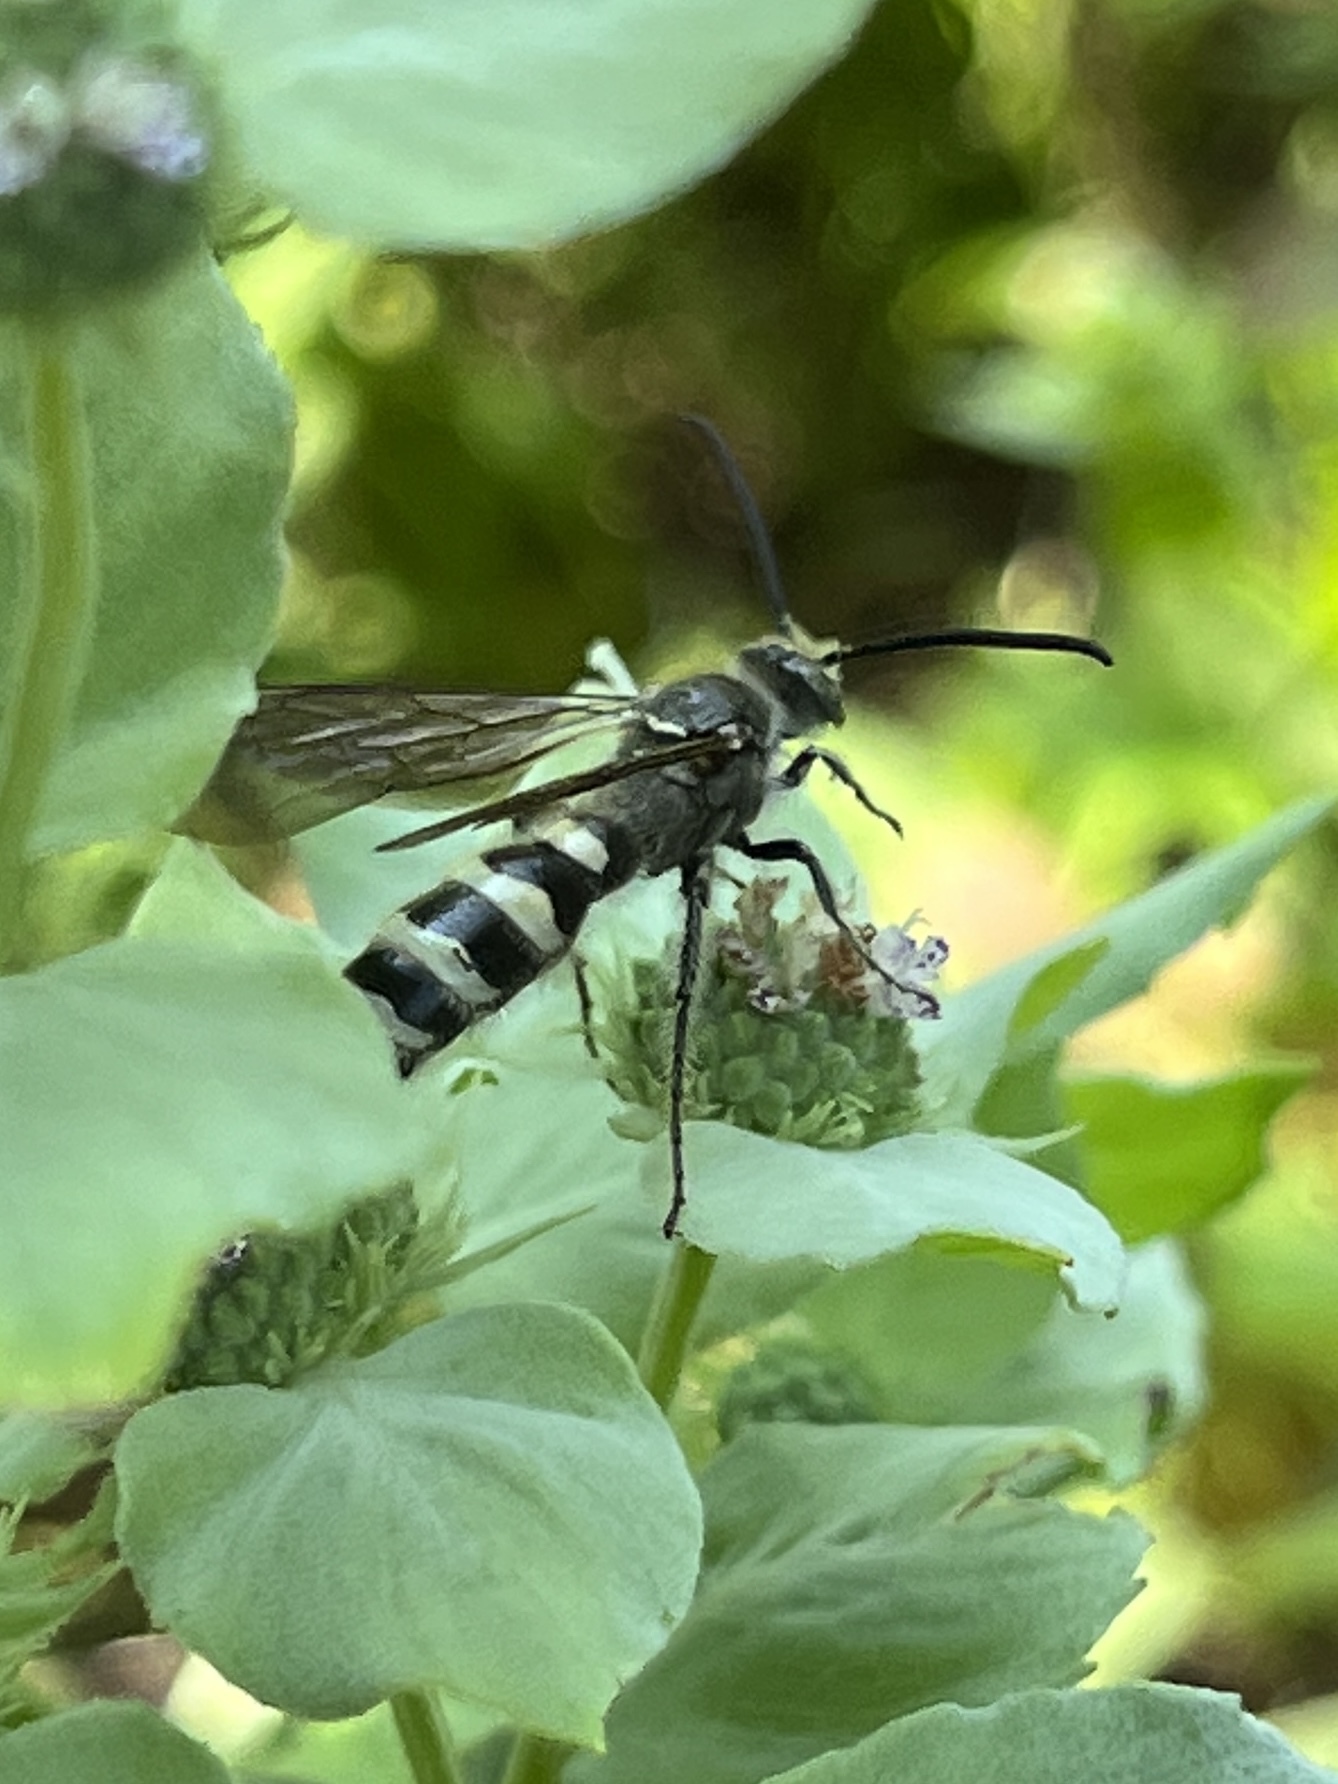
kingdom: Animalia
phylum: Arthropoda
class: Insecta
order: Hymenoptera
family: Scoliidae
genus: Dielis
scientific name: Dielis
